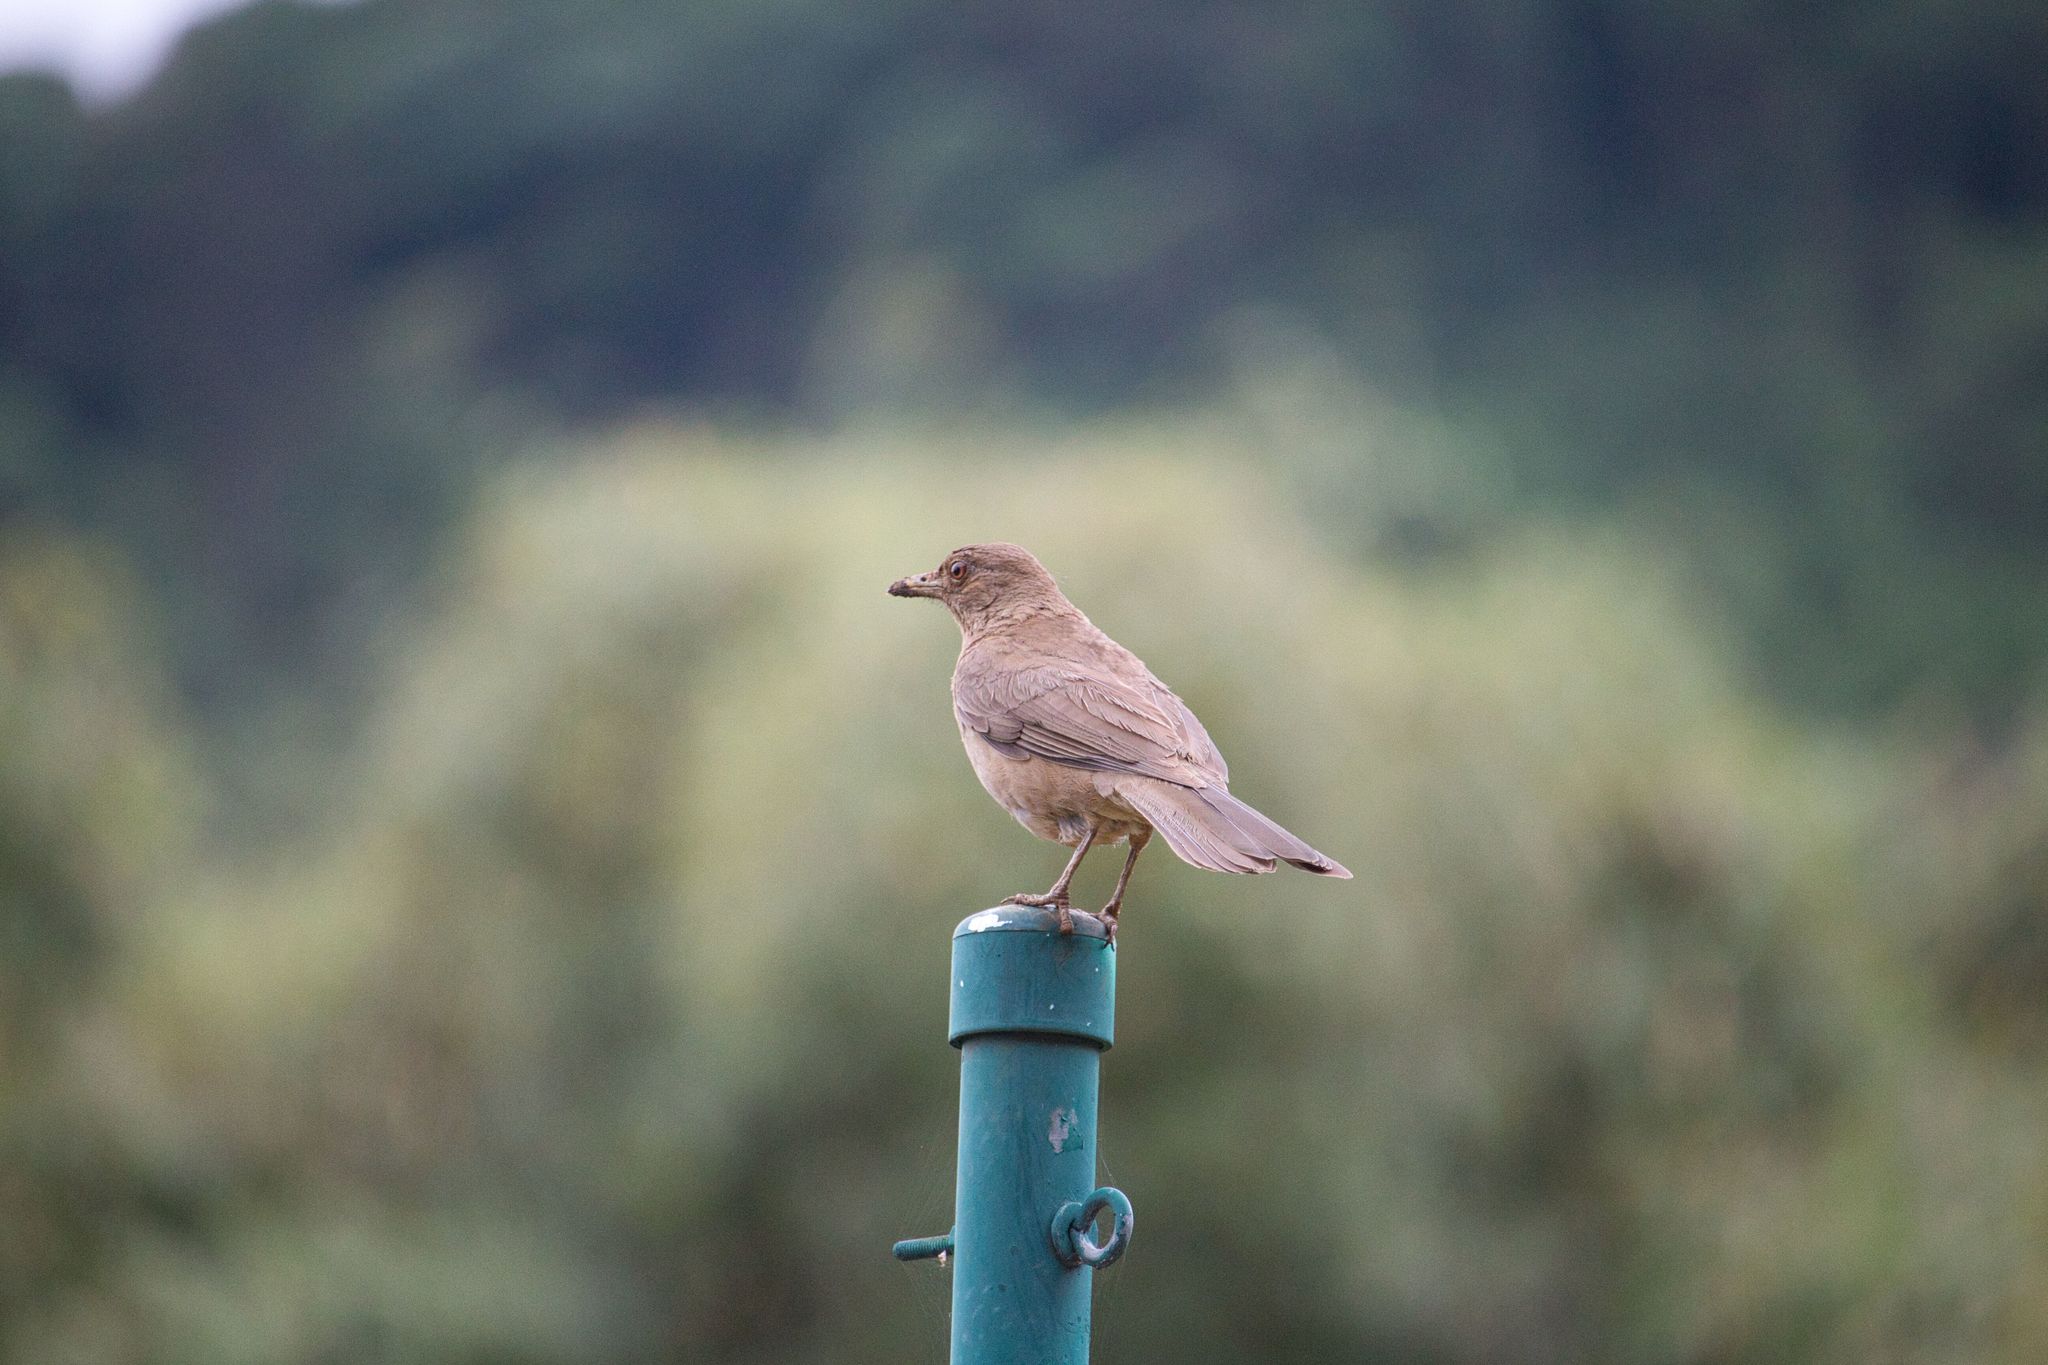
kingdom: Animalia
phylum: Chordata
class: Aves
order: Passeriformes
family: Turdidae
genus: Turdus
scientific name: Turdus grayi
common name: Clay-colored thrush
